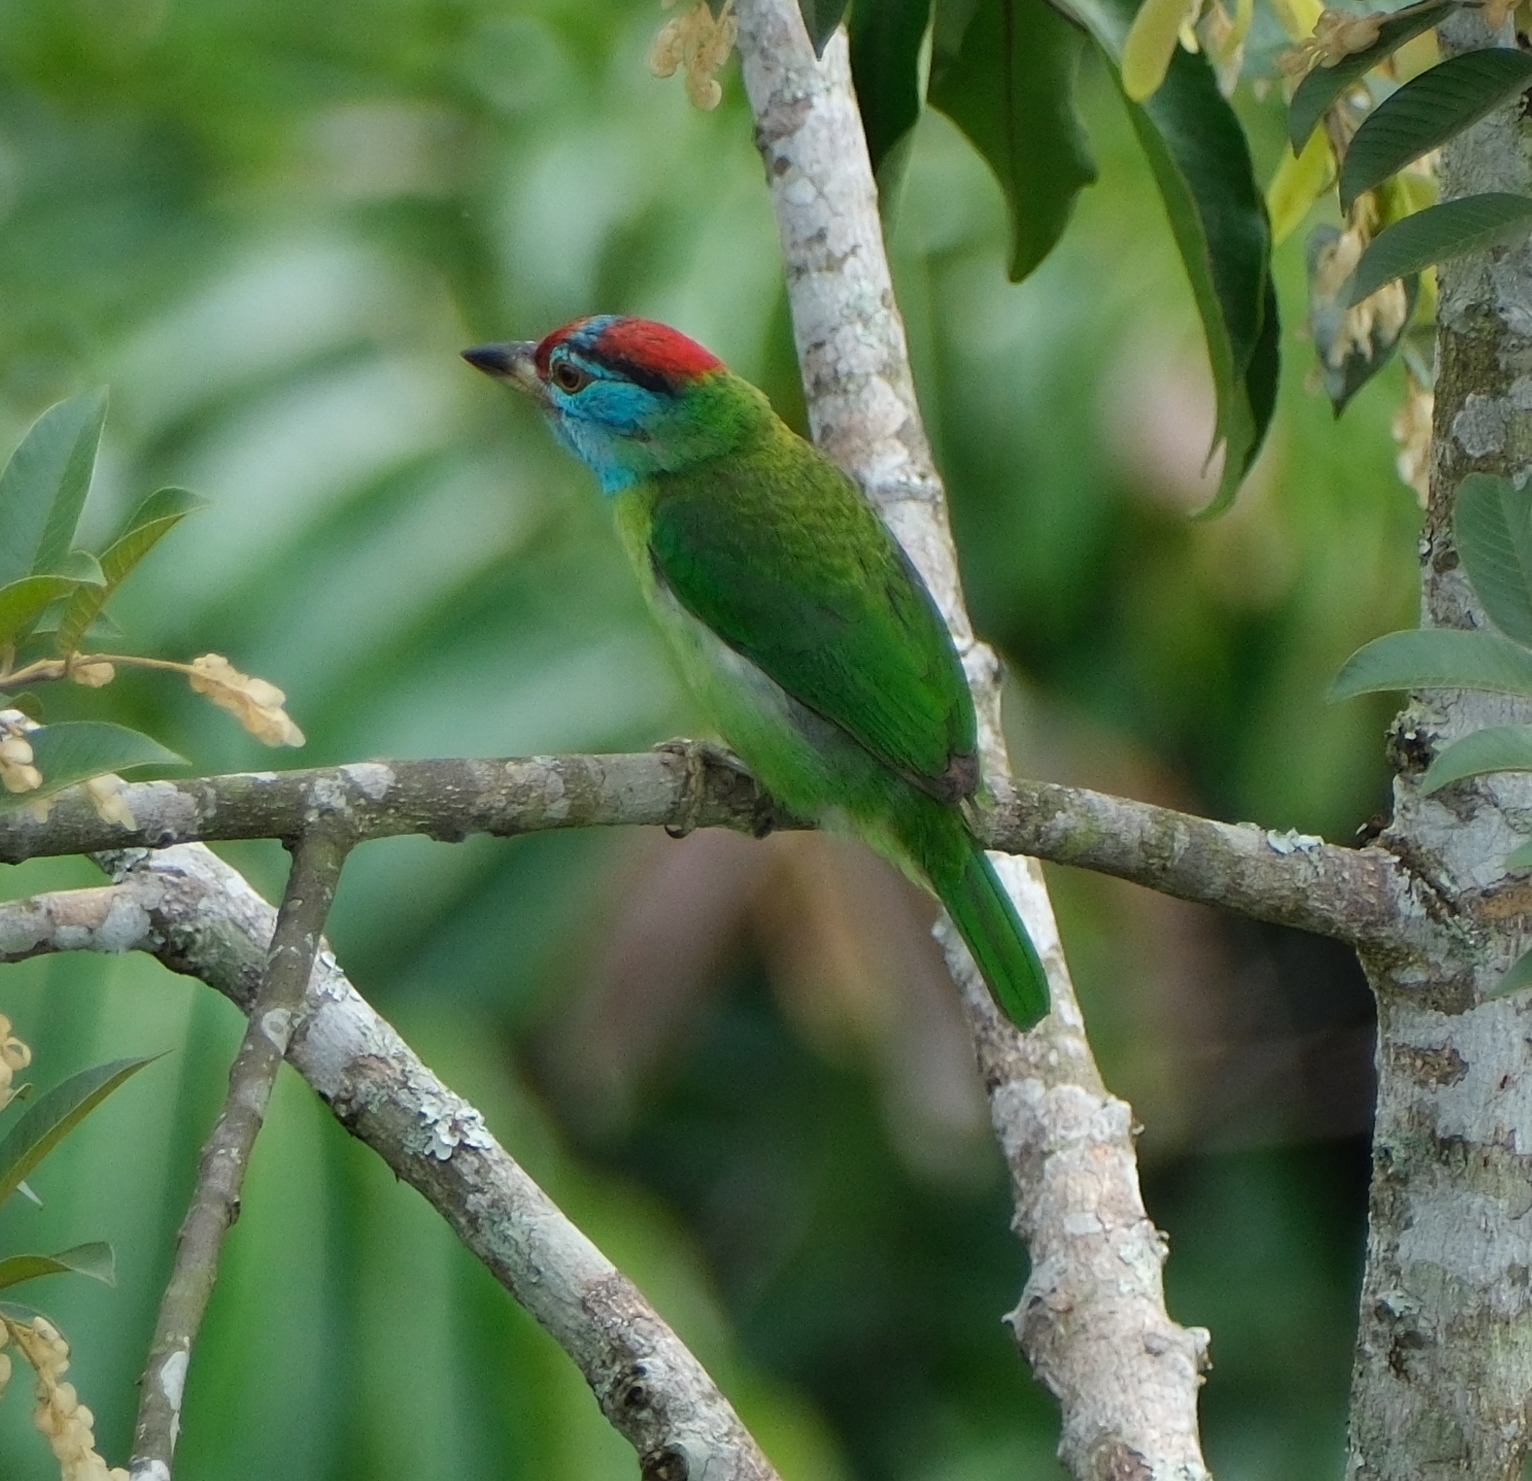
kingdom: Animalia
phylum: Chordata
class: Aves
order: Piciformes
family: Megalaimidae
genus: Psilopogon
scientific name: Psilopogon asiaticus
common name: Blue-throated barbet
